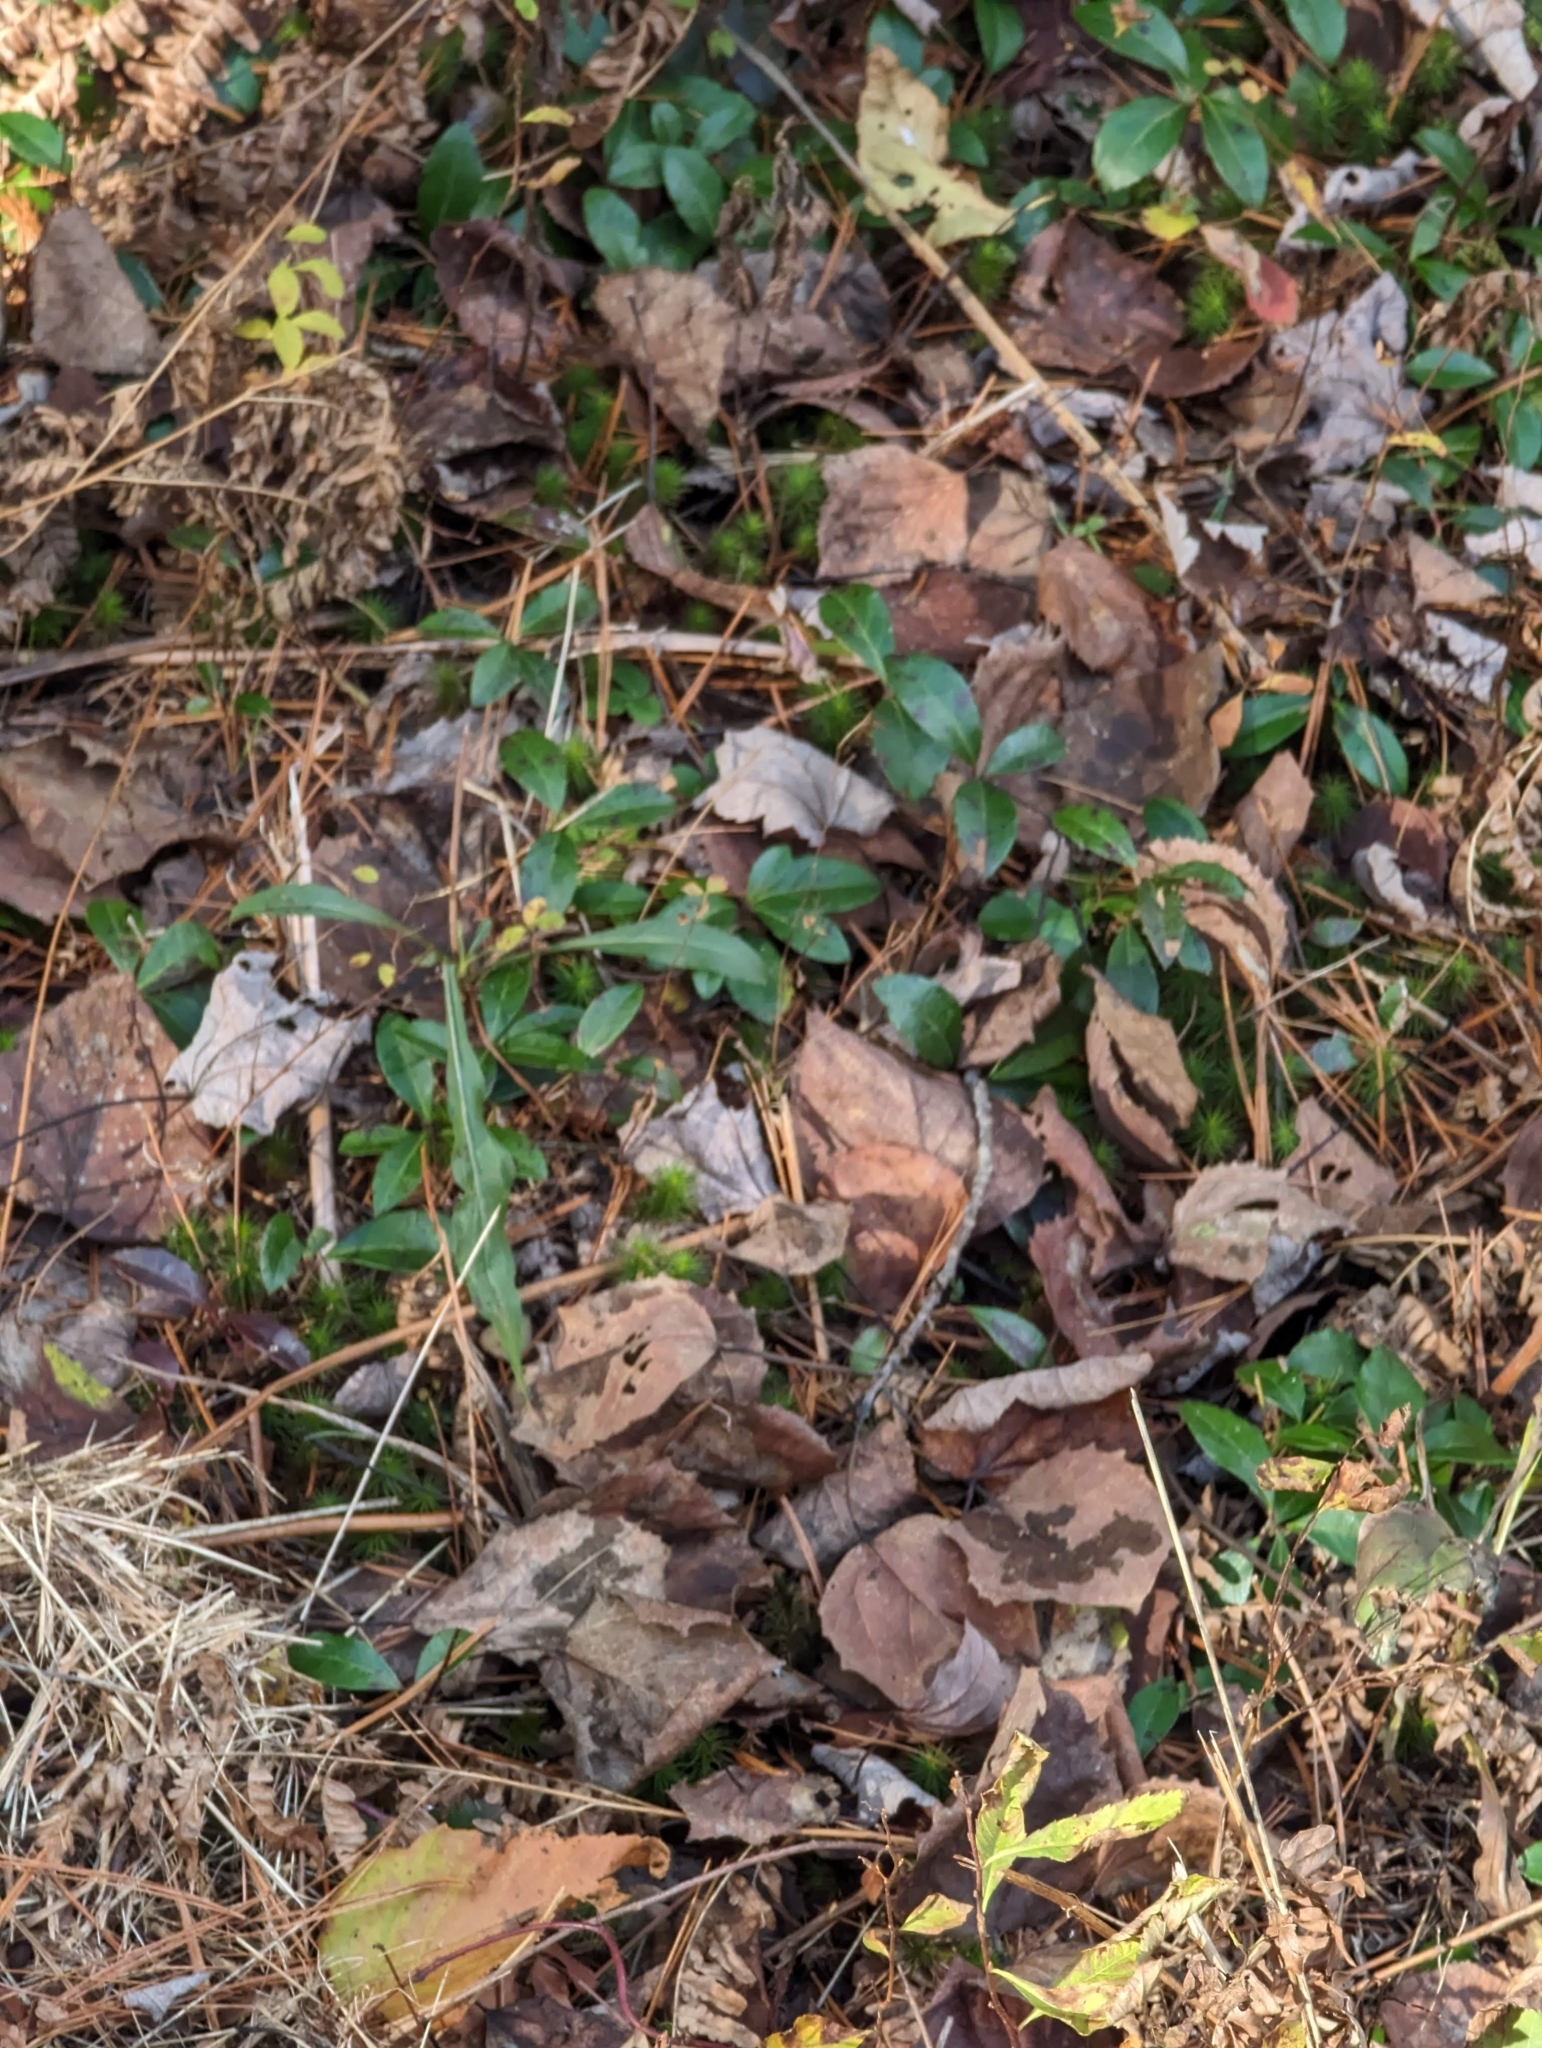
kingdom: Plantae
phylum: Tracheophyta
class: Magnoliopsida
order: Ericales
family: Ericaceae
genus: Gaultheria
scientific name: Gaultheria procumbens
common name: Checkerberry
